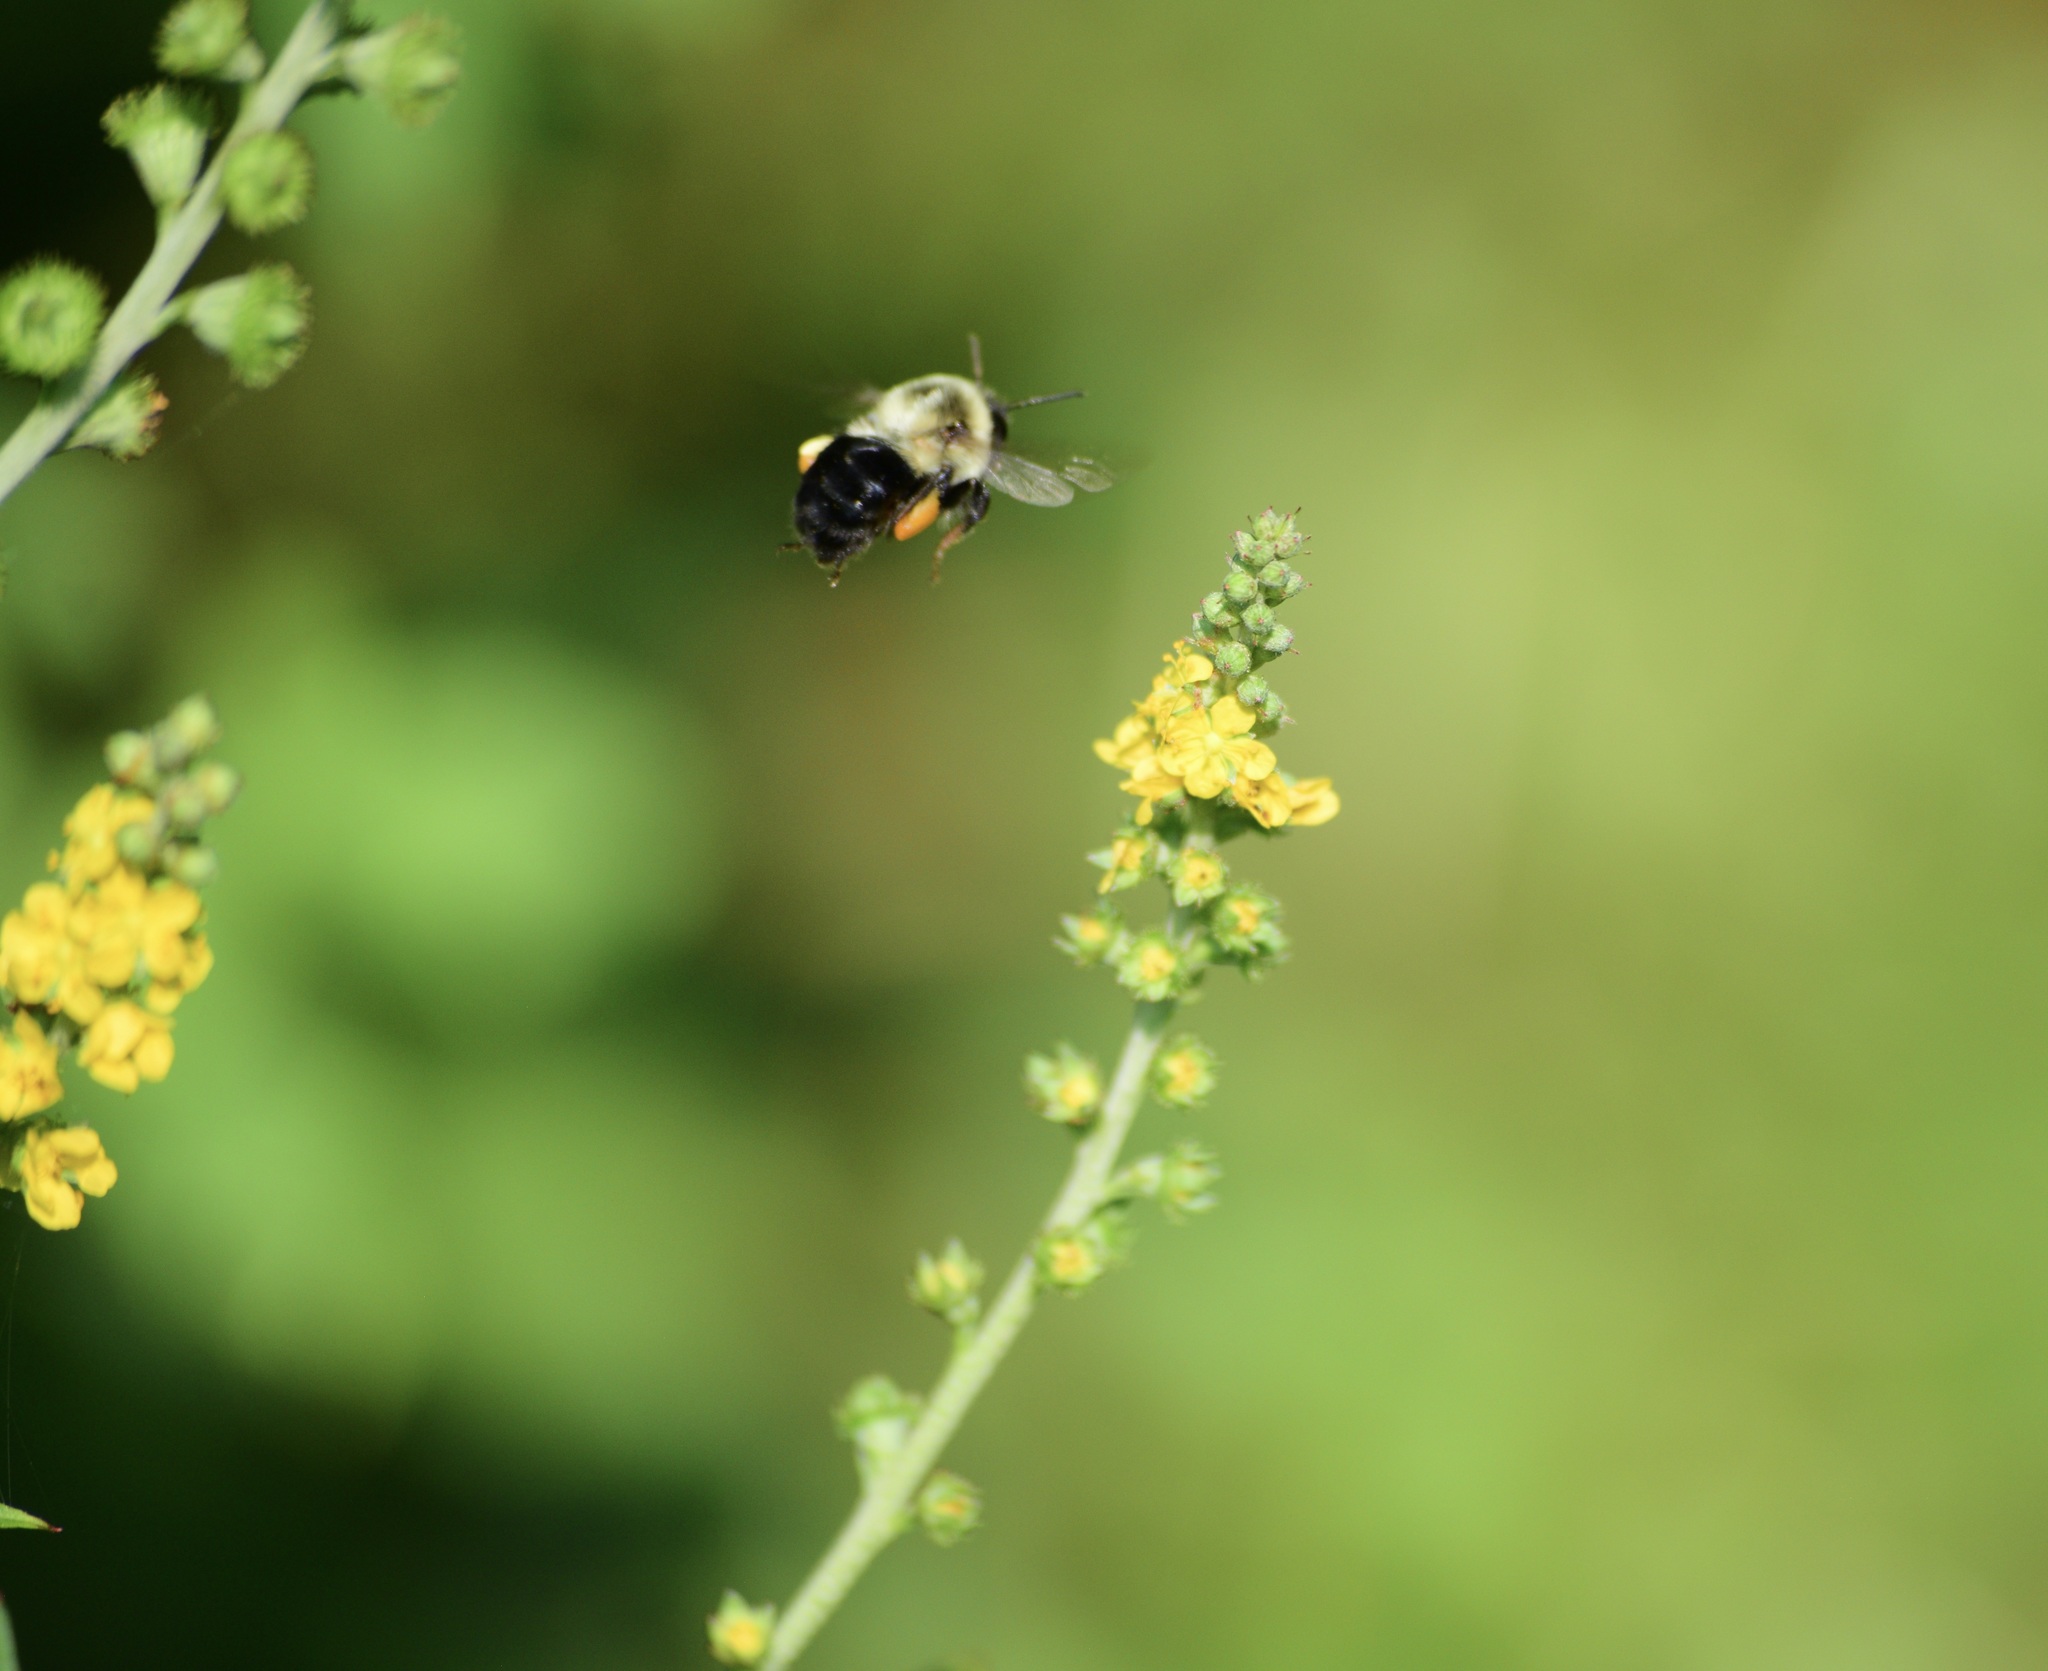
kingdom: Animalia
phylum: Arthropoda
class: Insecta
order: Hymenoptera
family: Apidae
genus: Bombus
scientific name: Bombus impatiens
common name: Common eastern bumble bee
